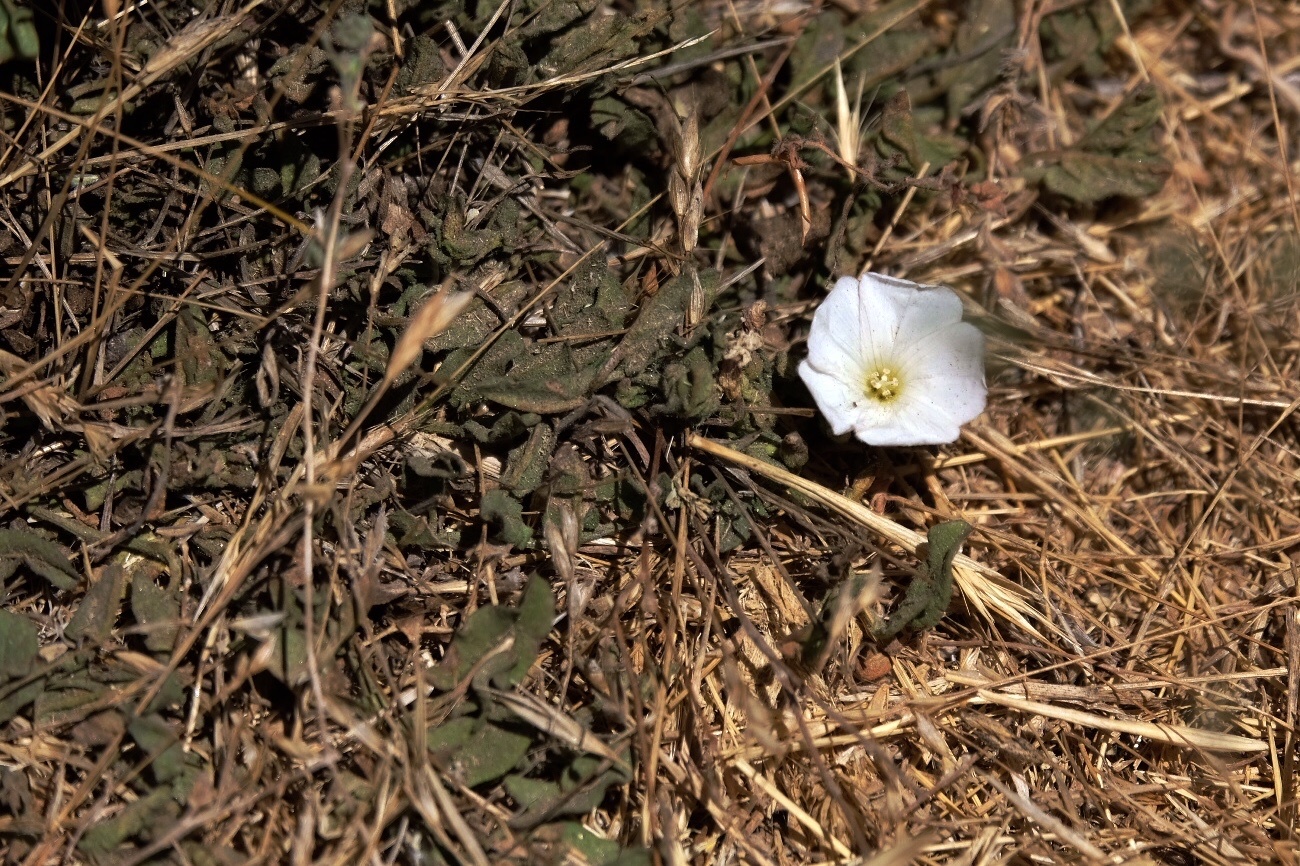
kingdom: Plantae
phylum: Tracheophyta
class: Magnoliopsida
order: Solanales
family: Convolvulaceae
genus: Convolvulus
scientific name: Convolvulus arvensis
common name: Field bindweed
